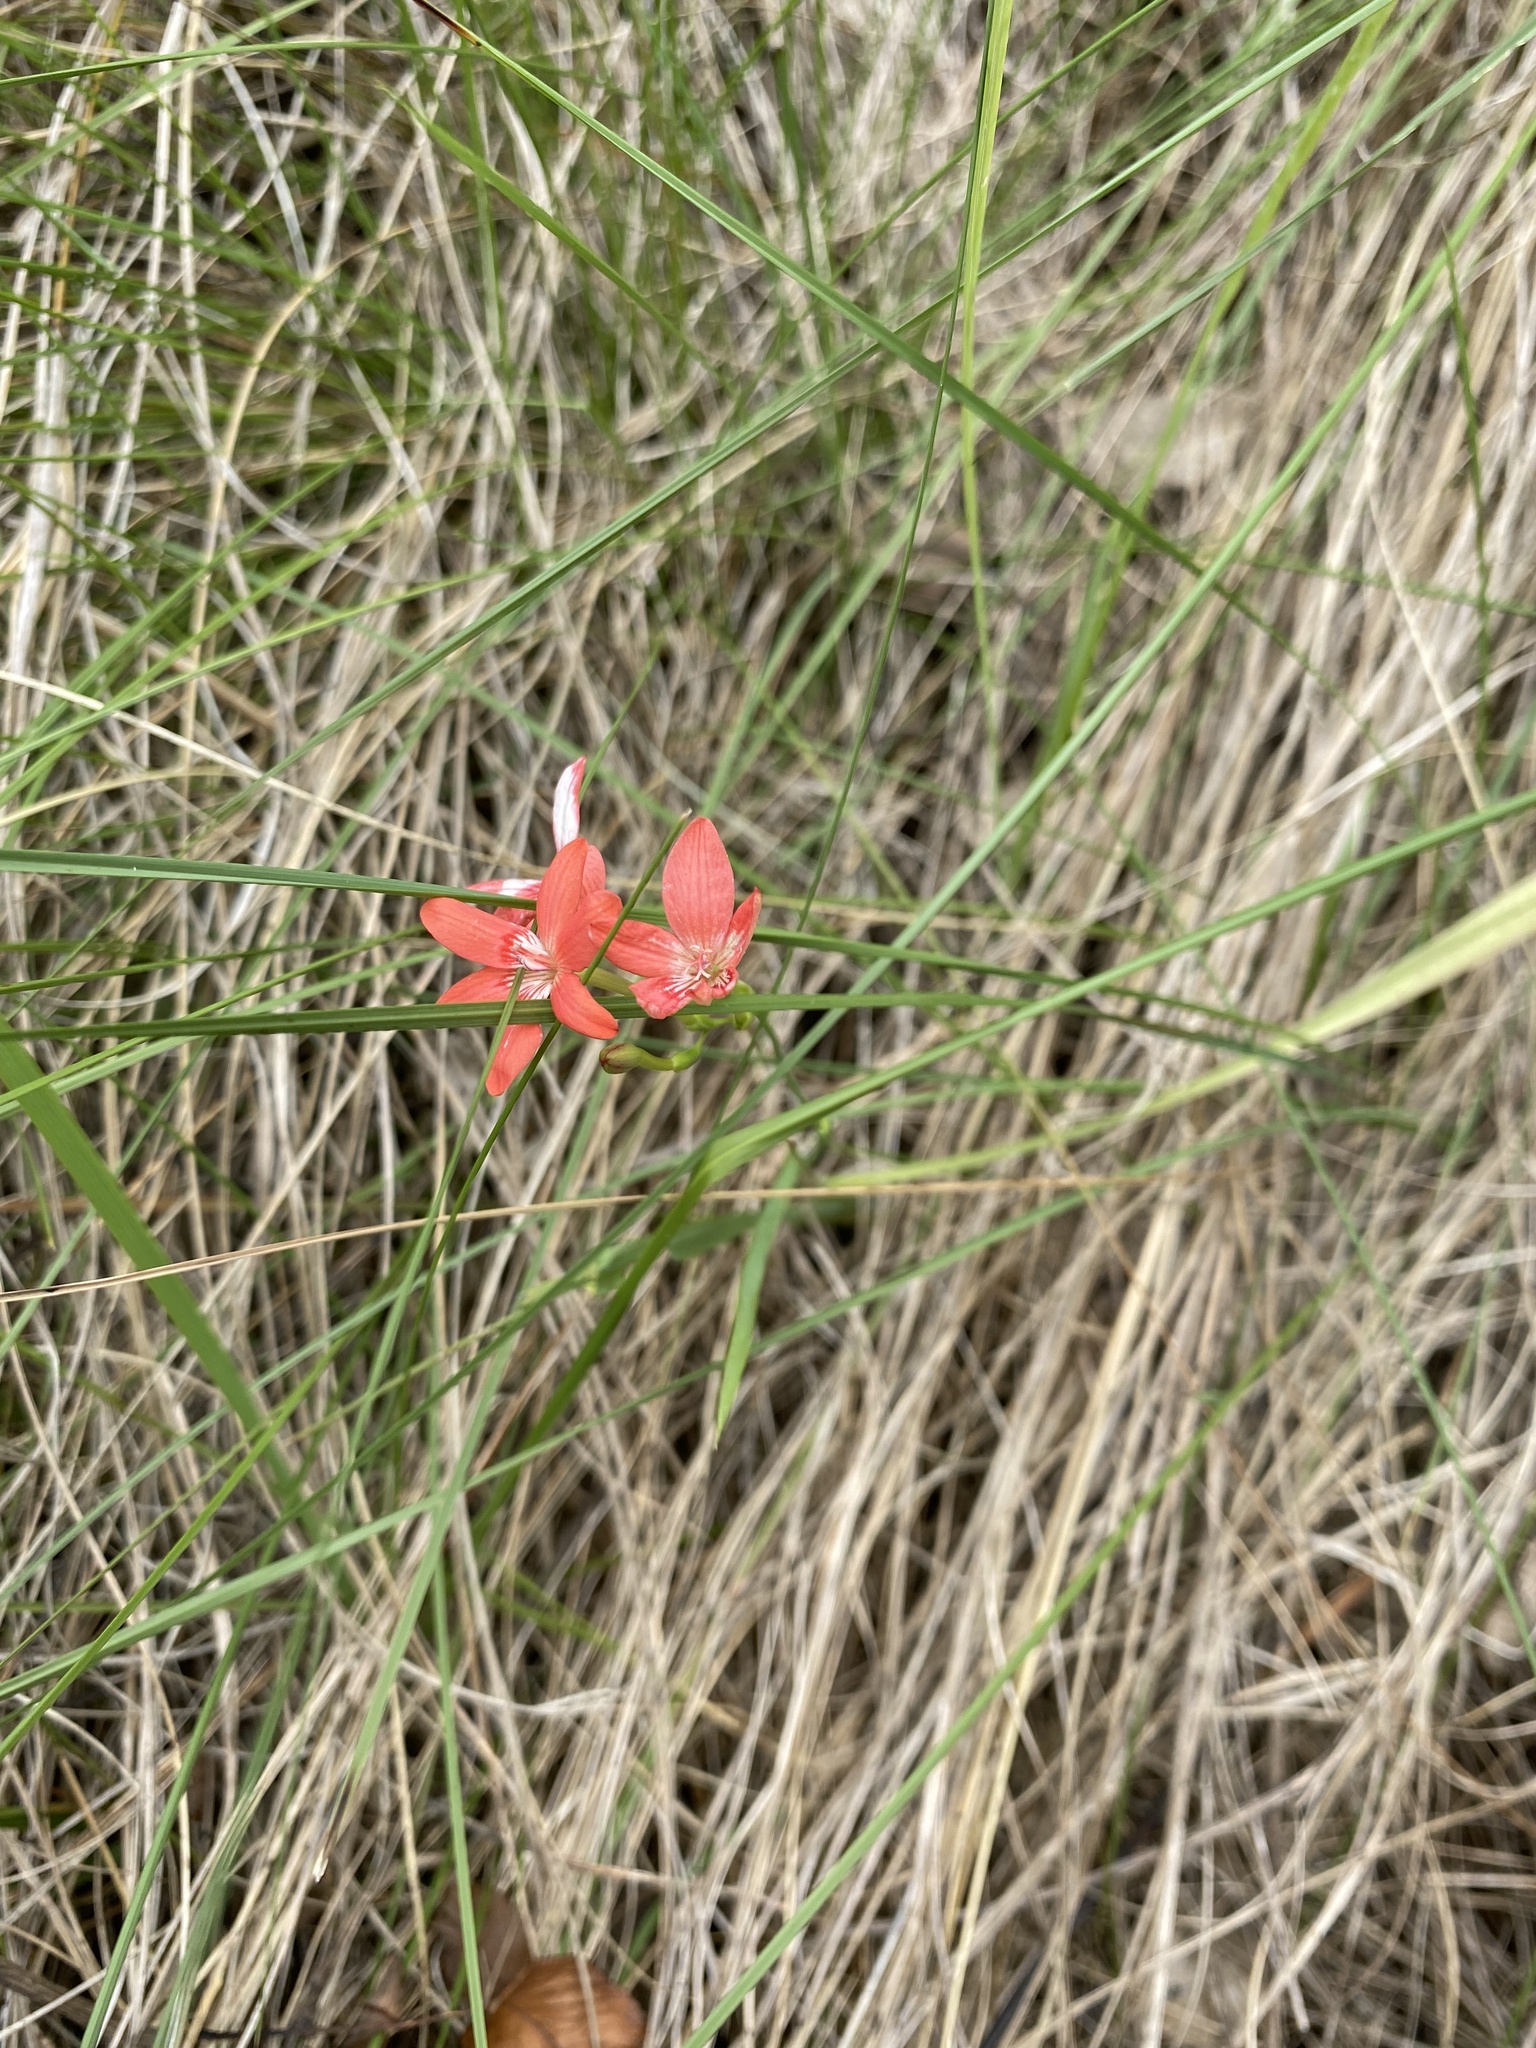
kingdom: Plantae
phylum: Tracheophyta
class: Liliopsida
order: Asparagales
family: Iridaceae
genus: Freesia
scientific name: Freesia laxa
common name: False freesia
